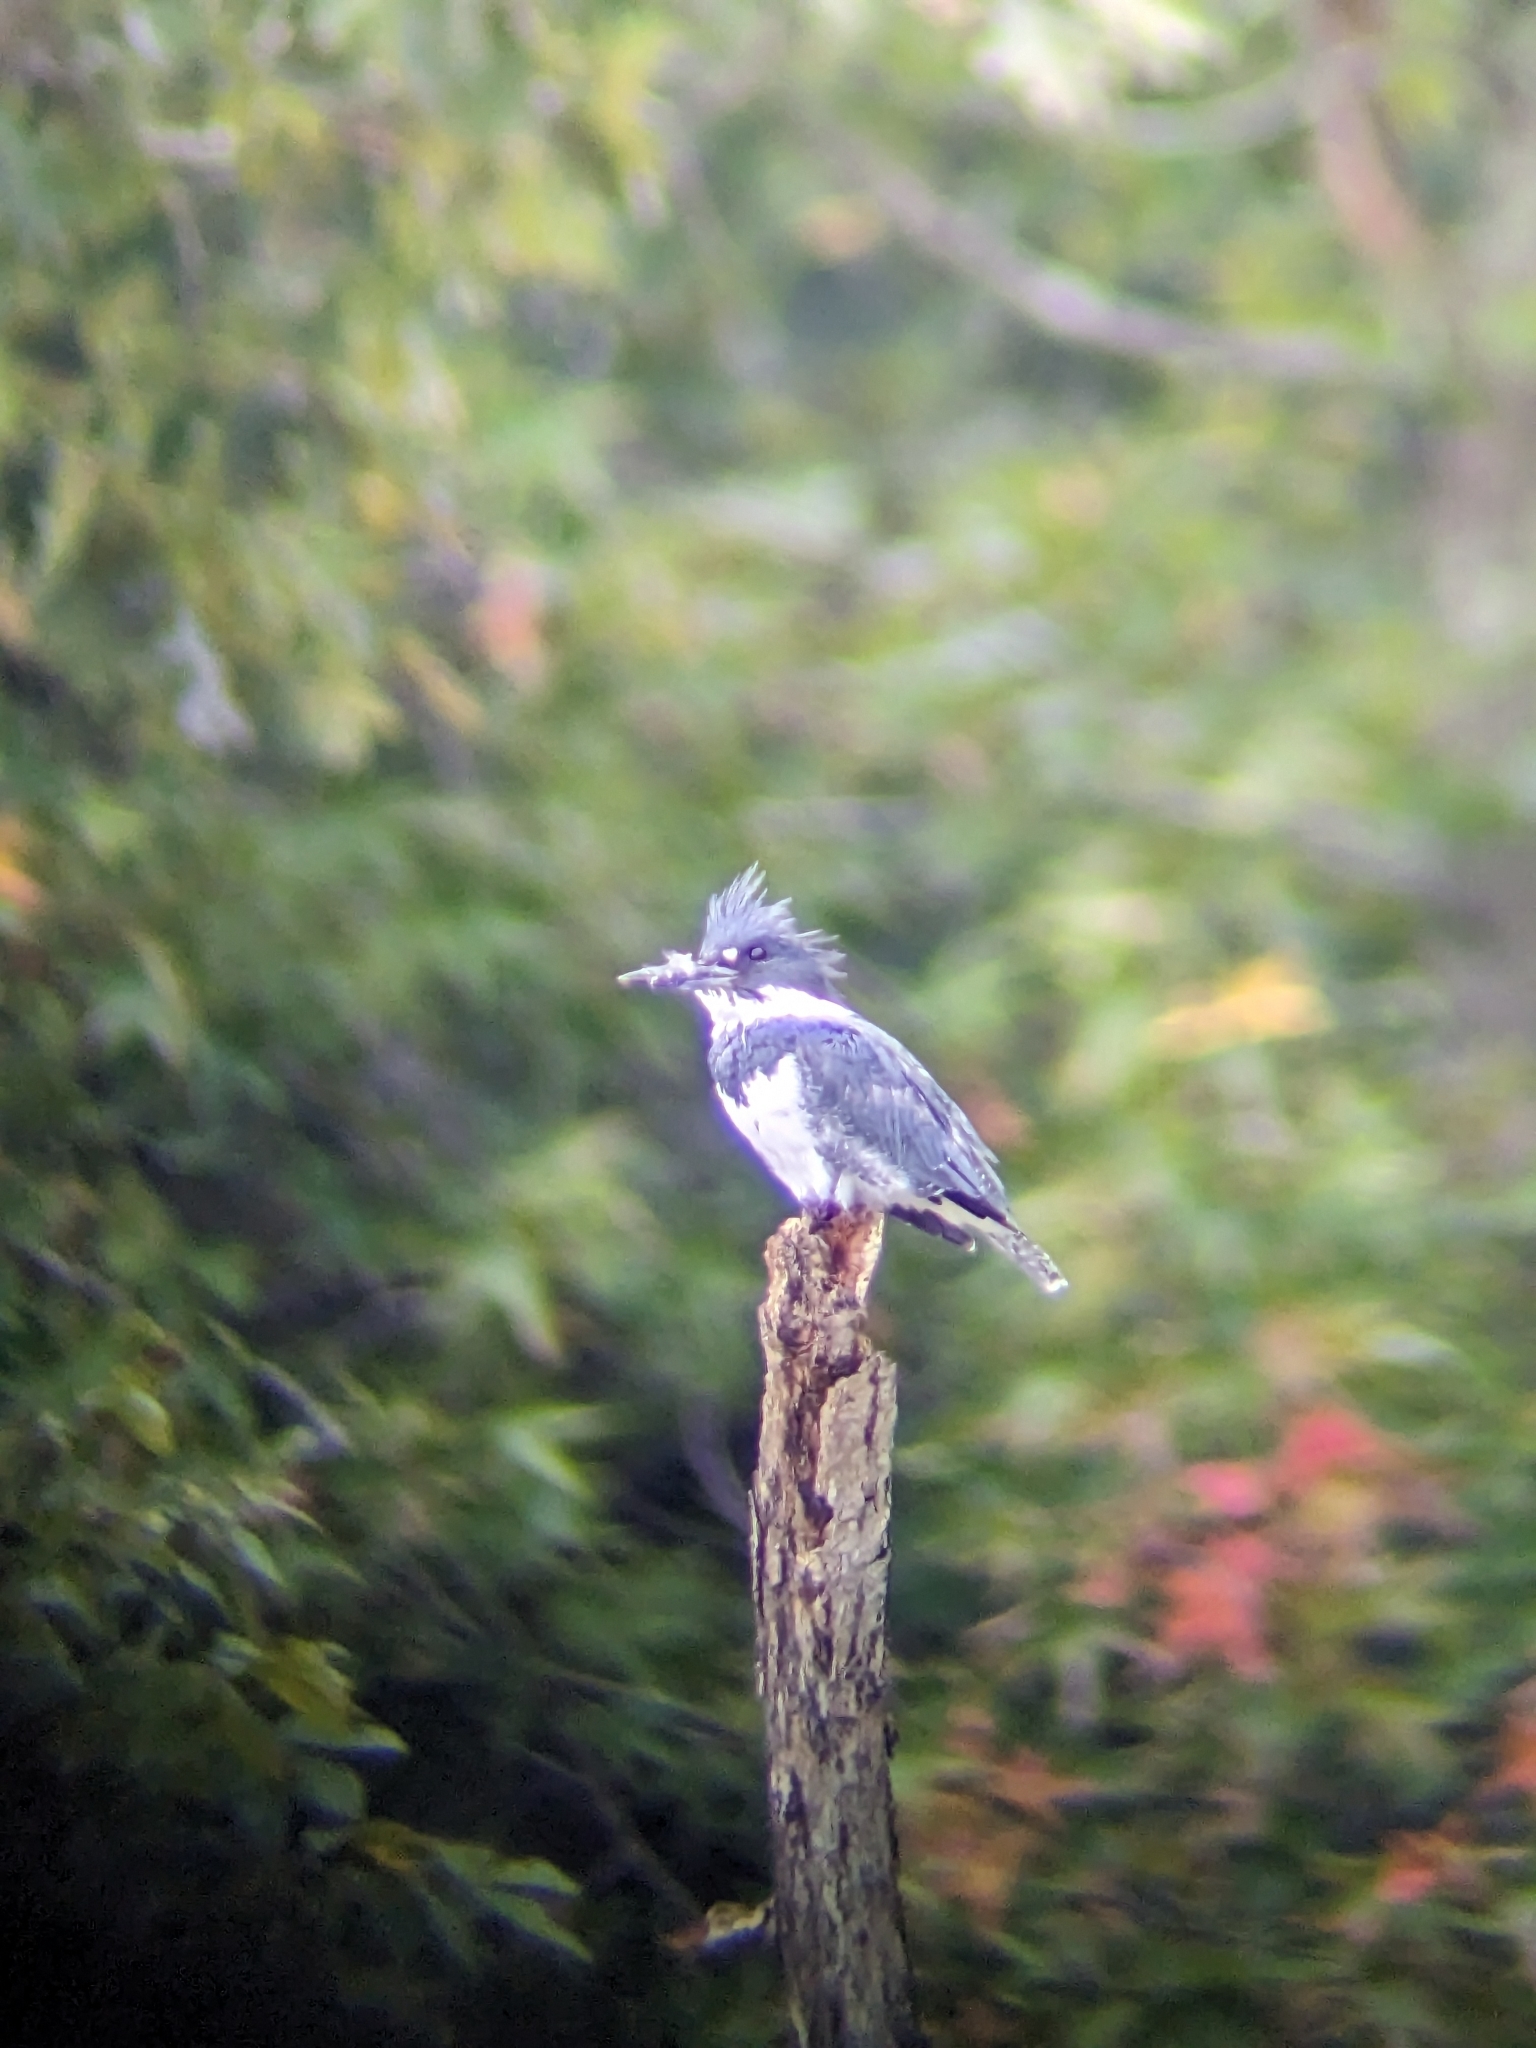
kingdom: Animalia
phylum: Chordata
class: Aves
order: Coraciiformes
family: Alcedinidae
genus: Megaceryle
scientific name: Megaceryle alcyon
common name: Belted kingfisher
